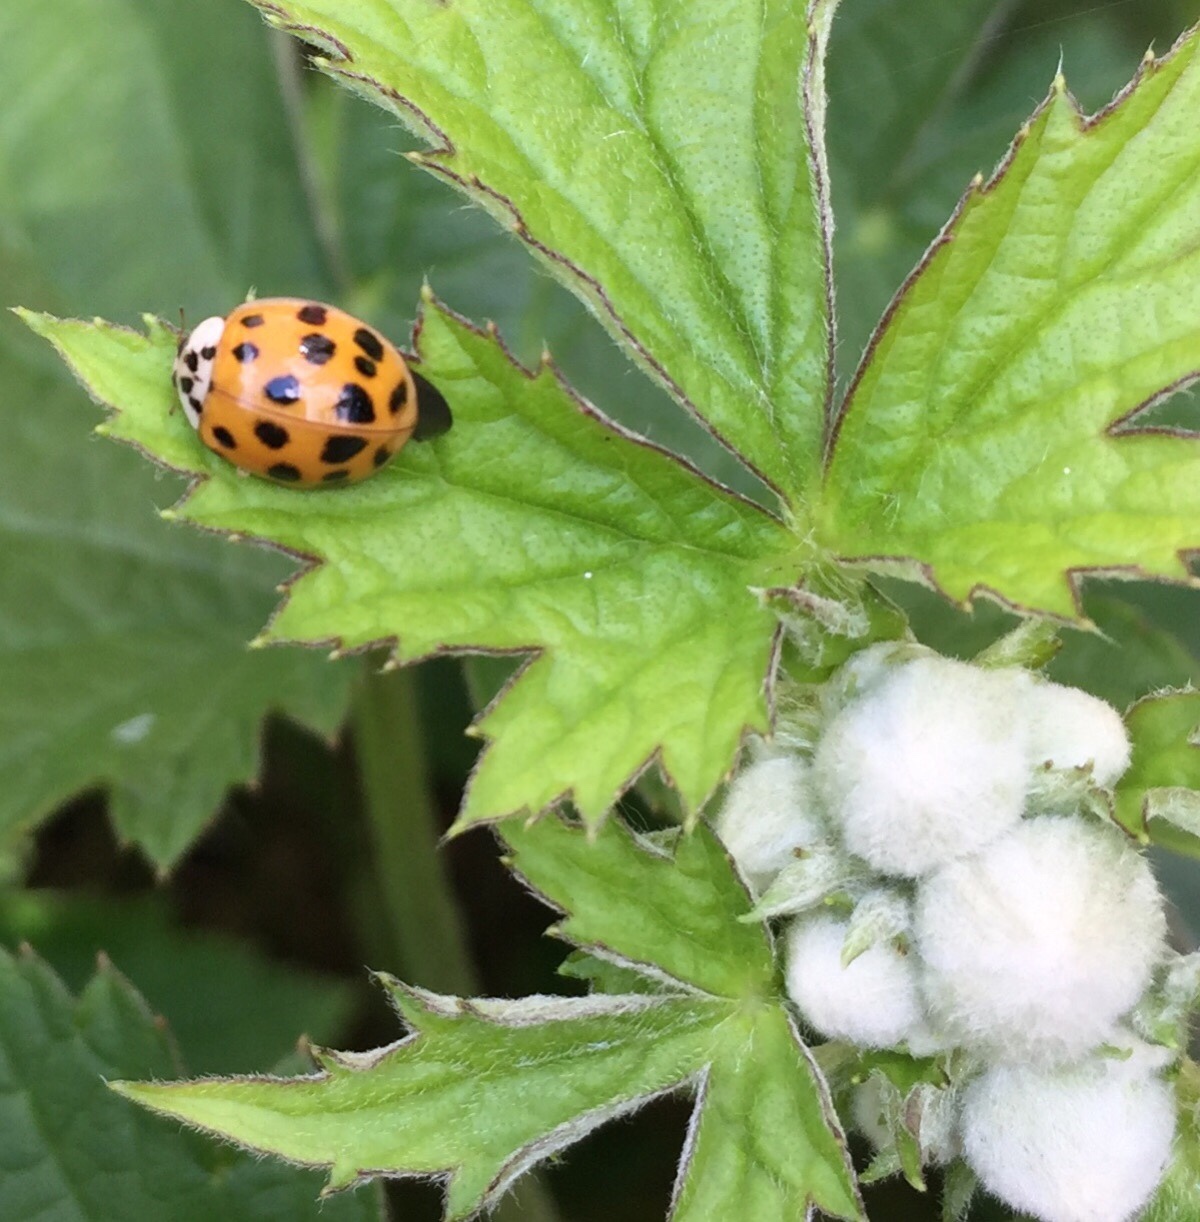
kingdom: Animalia
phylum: Arthropoda
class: Insecta
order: Coleoptera
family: Coccinellidae
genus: Harmonia
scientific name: Harmonia axyridis
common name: Harlequin ladybird
